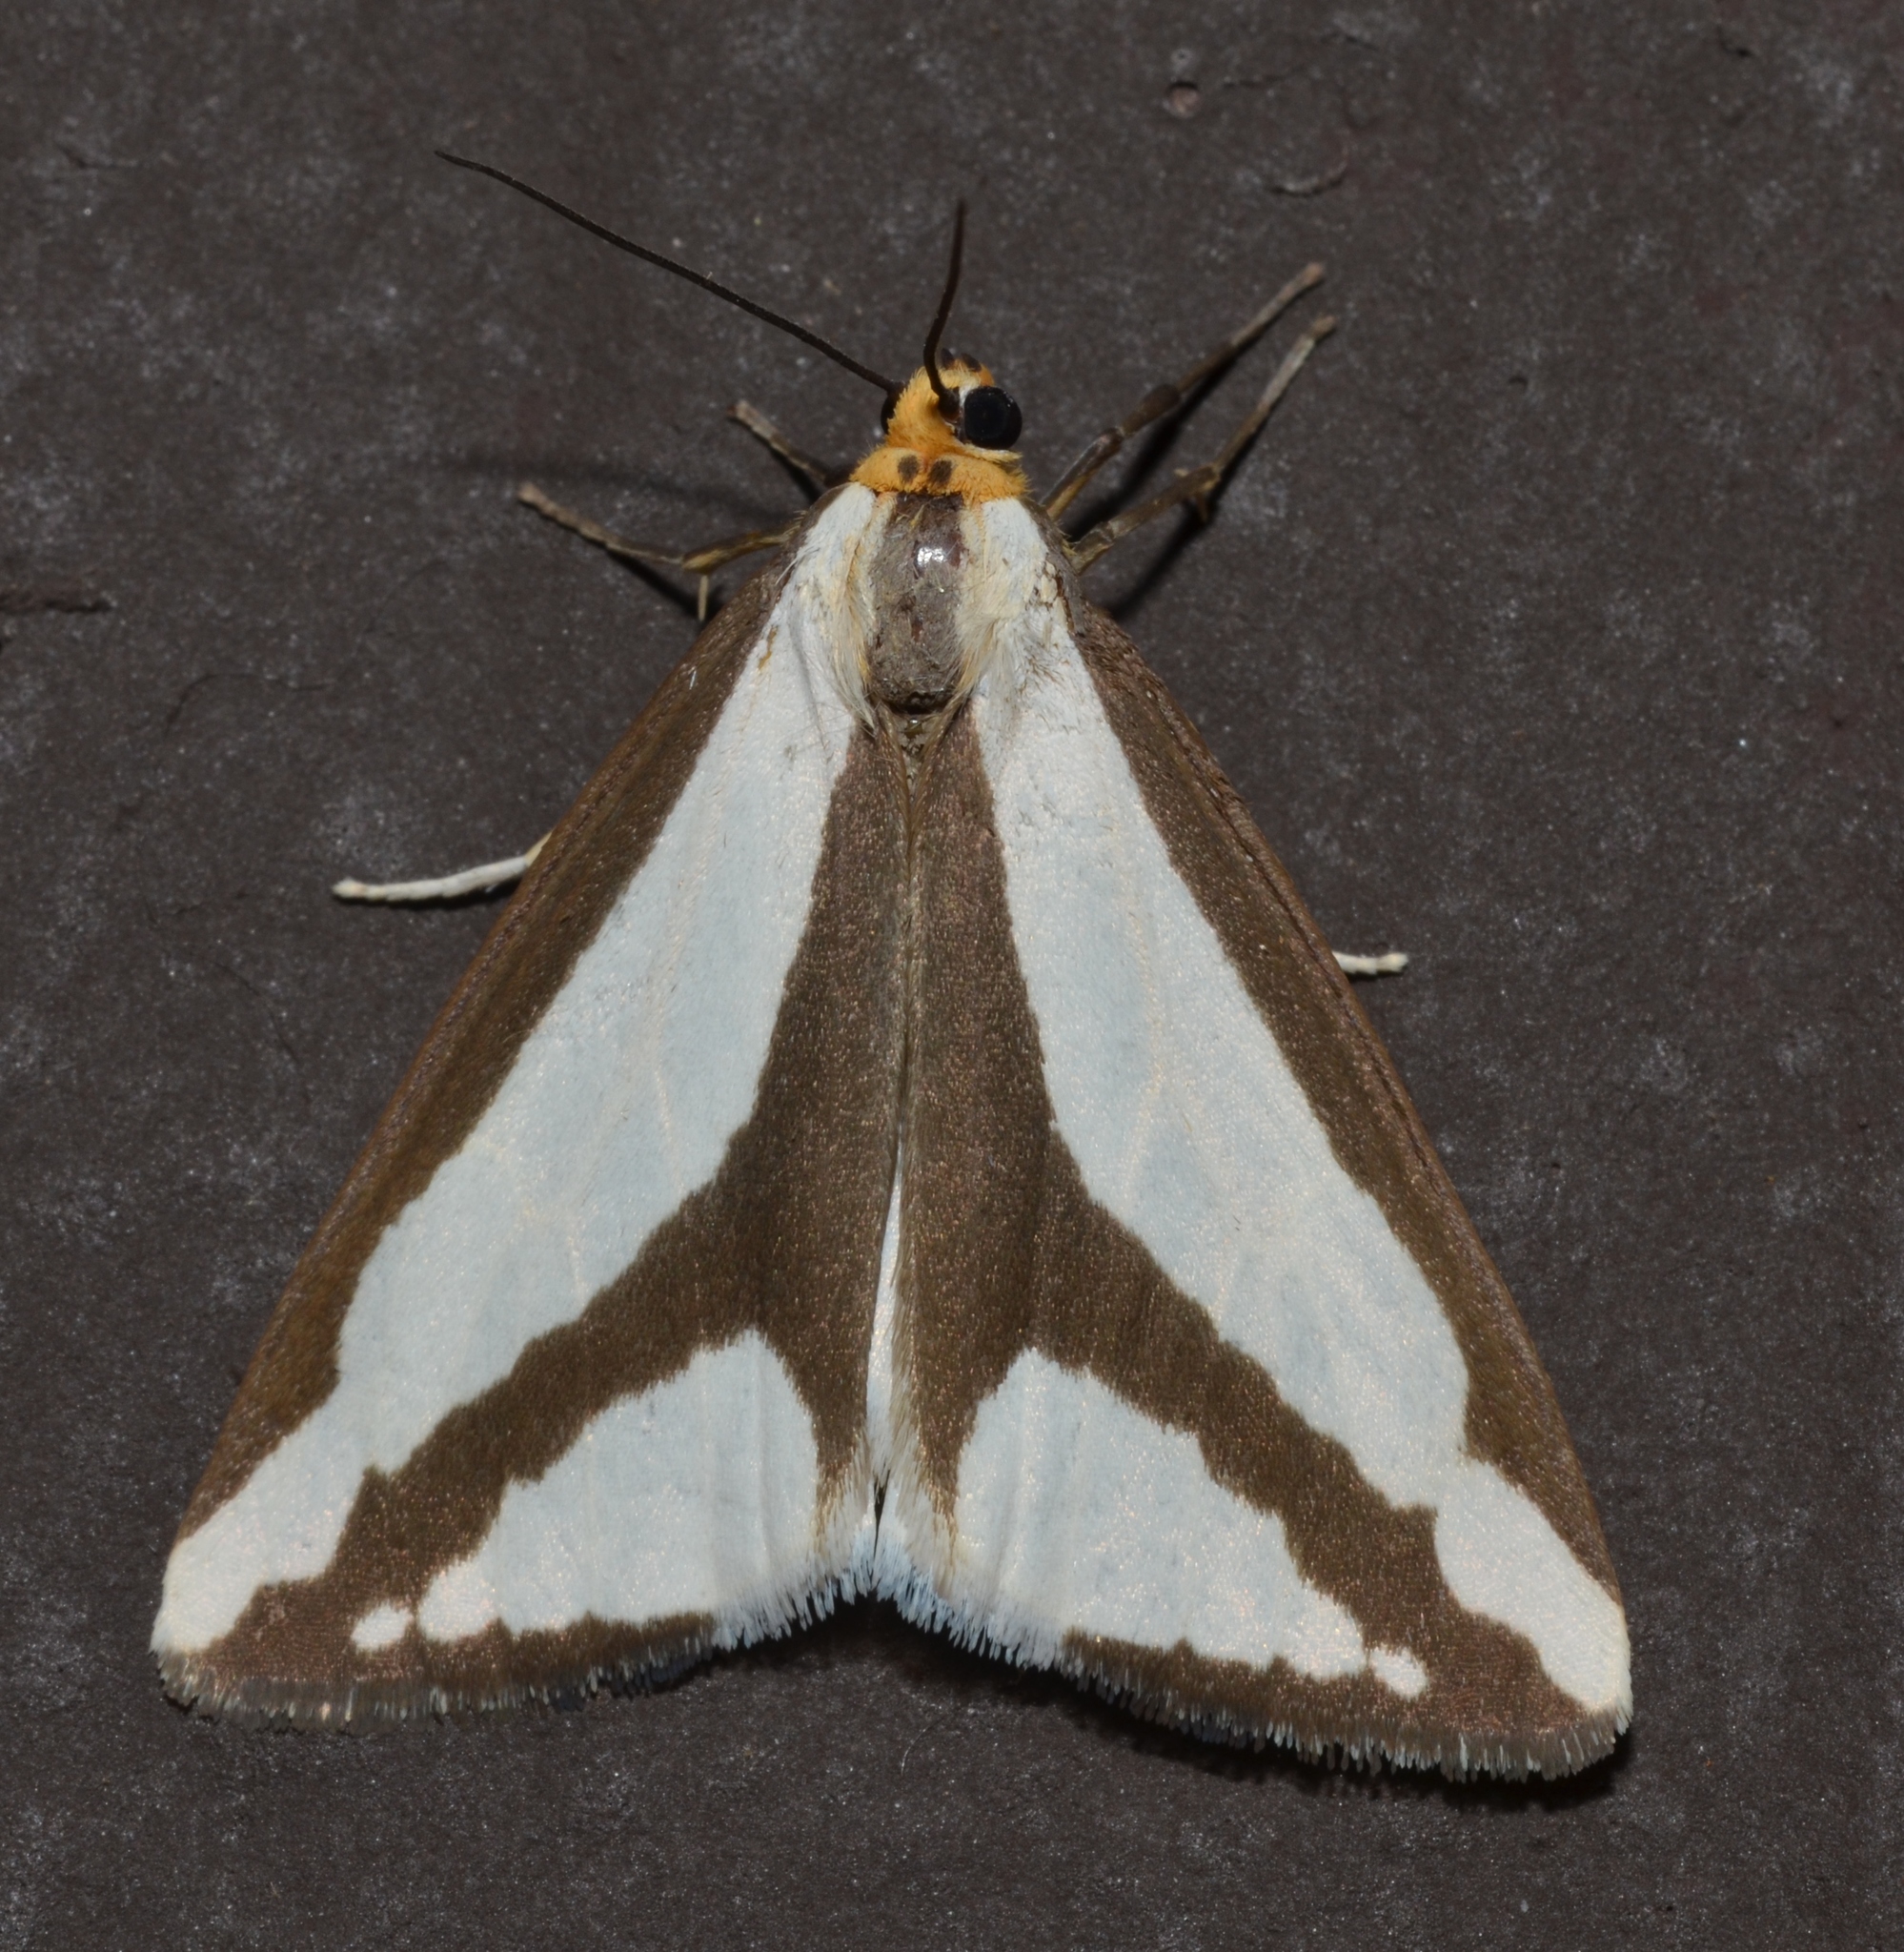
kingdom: Animalia
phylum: Arthropoda
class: Insecta
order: Lepidoptera
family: Erebidae
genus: Haploa
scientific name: Haploa lecontei
